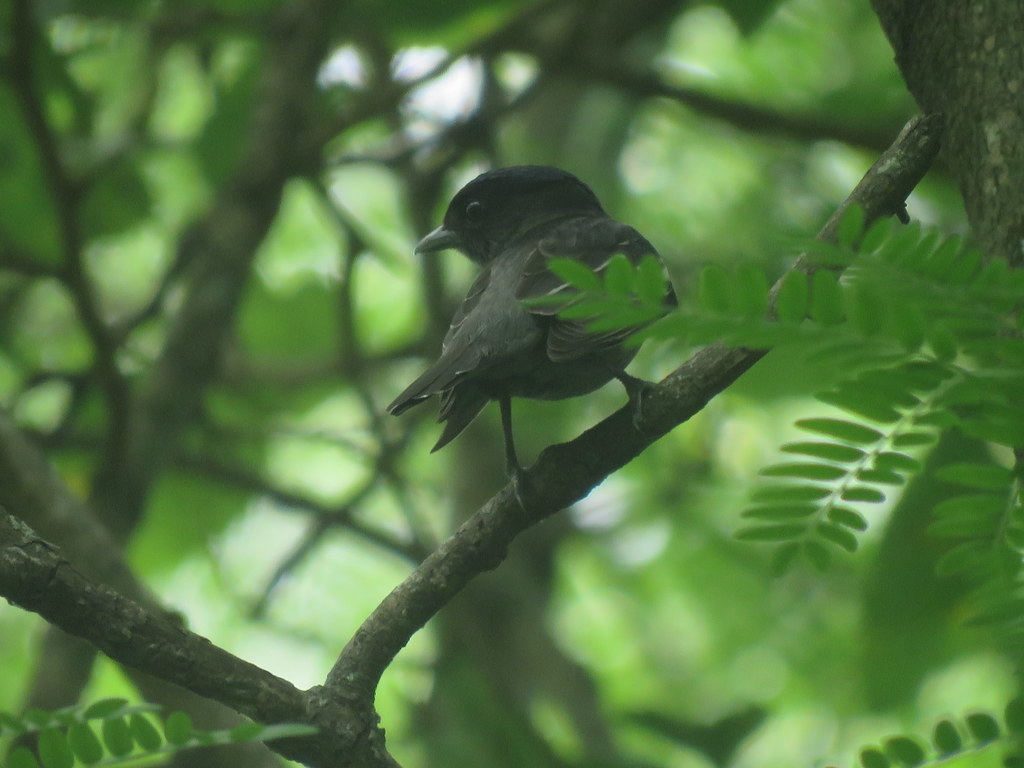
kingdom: Animalia
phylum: Chordata
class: Aves
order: Passeriformes
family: Cotingidae
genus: Pachyramphus
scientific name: Pachyramphus polychopterus
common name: White-winged becard
